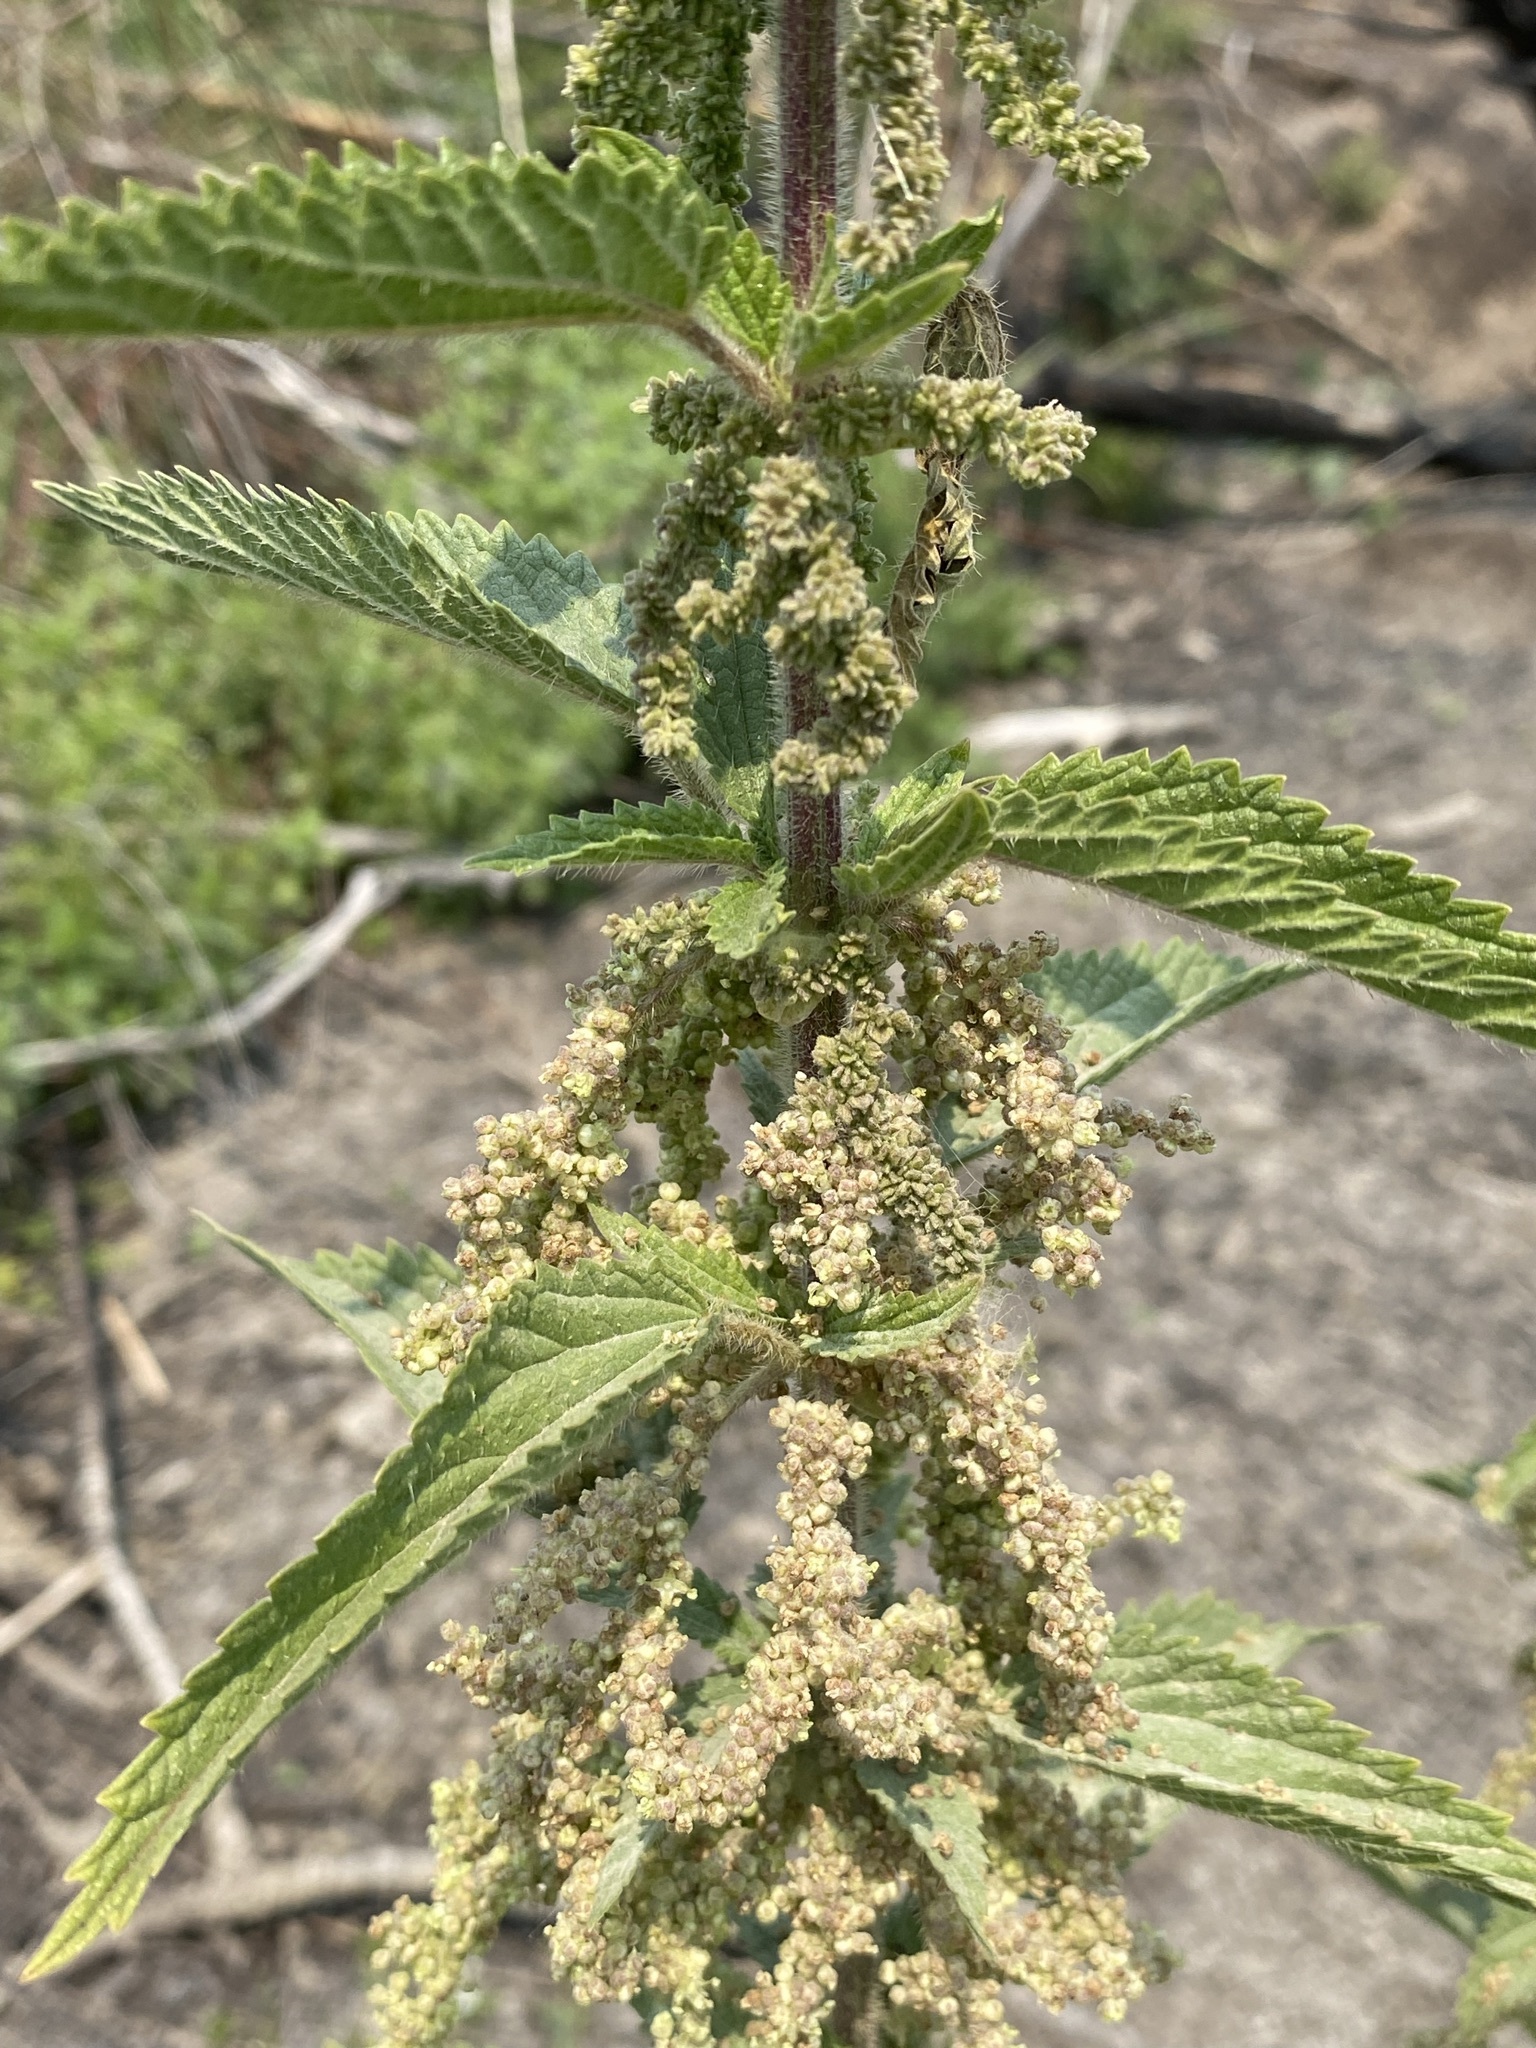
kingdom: Plantae
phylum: Tracheophyta
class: Magnoliopsida
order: Rosales
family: Urticaceae
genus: Urtica
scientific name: Urtica gracilis
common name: Slender stinging nettle
